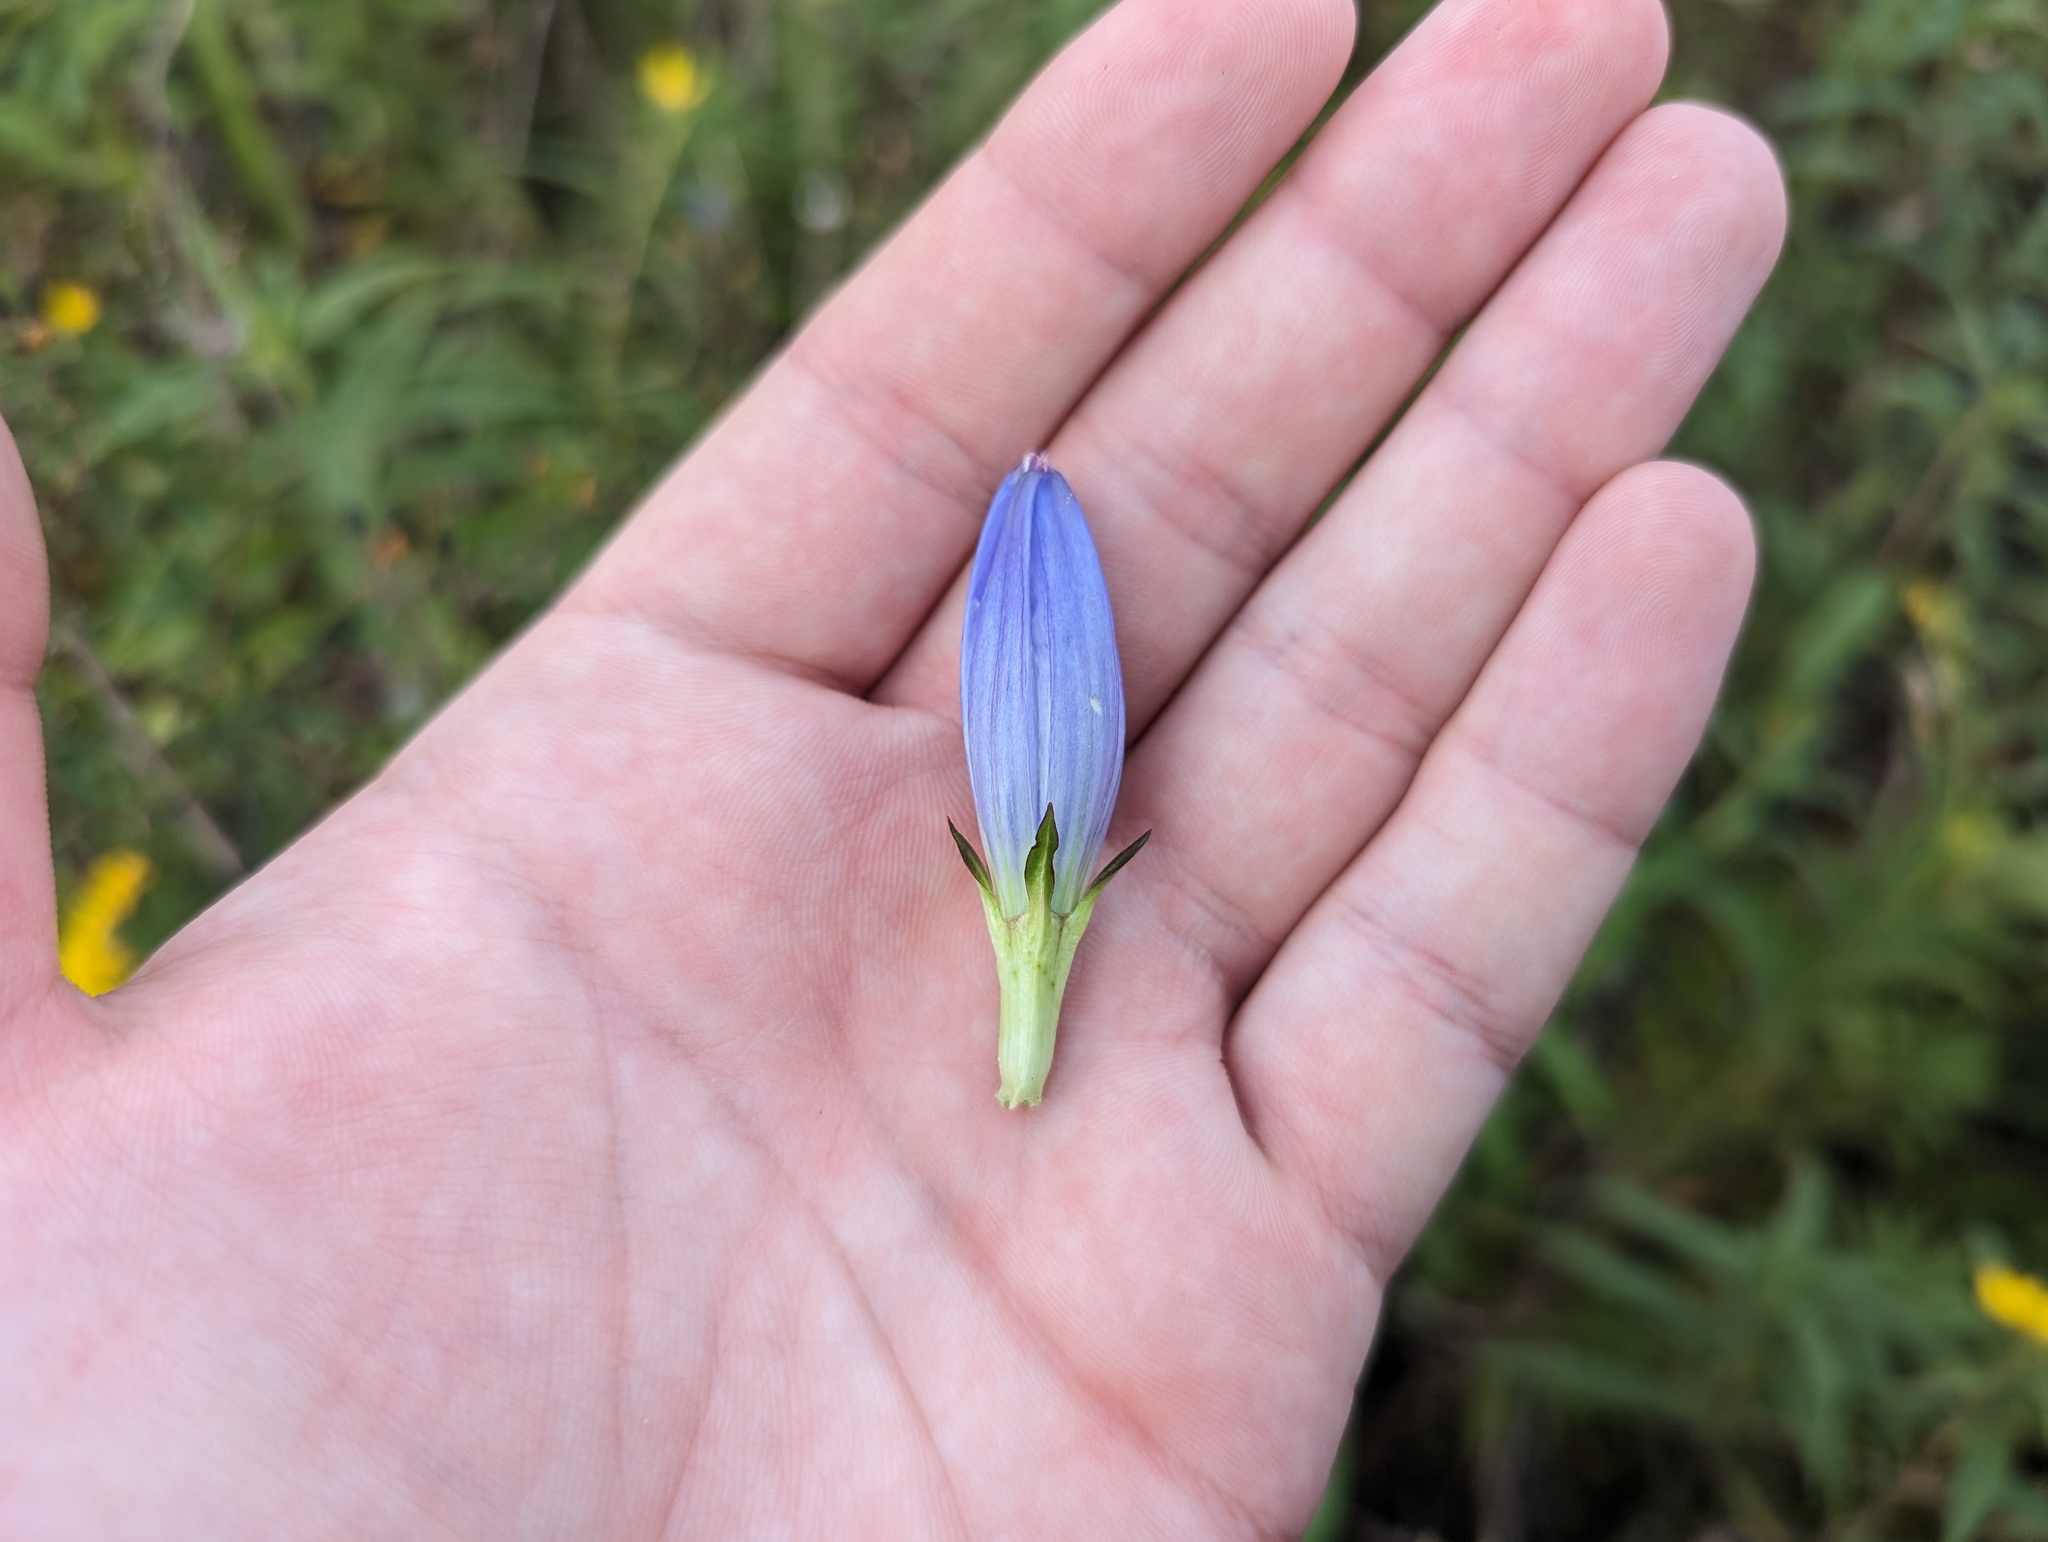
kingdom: Plantae
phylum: Tracheophyta
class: Magnoliopsida
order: Gentianales
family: Gentianaceae
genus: Gentiana
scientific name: Gentiana andrewsii
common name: Bottle gentian
